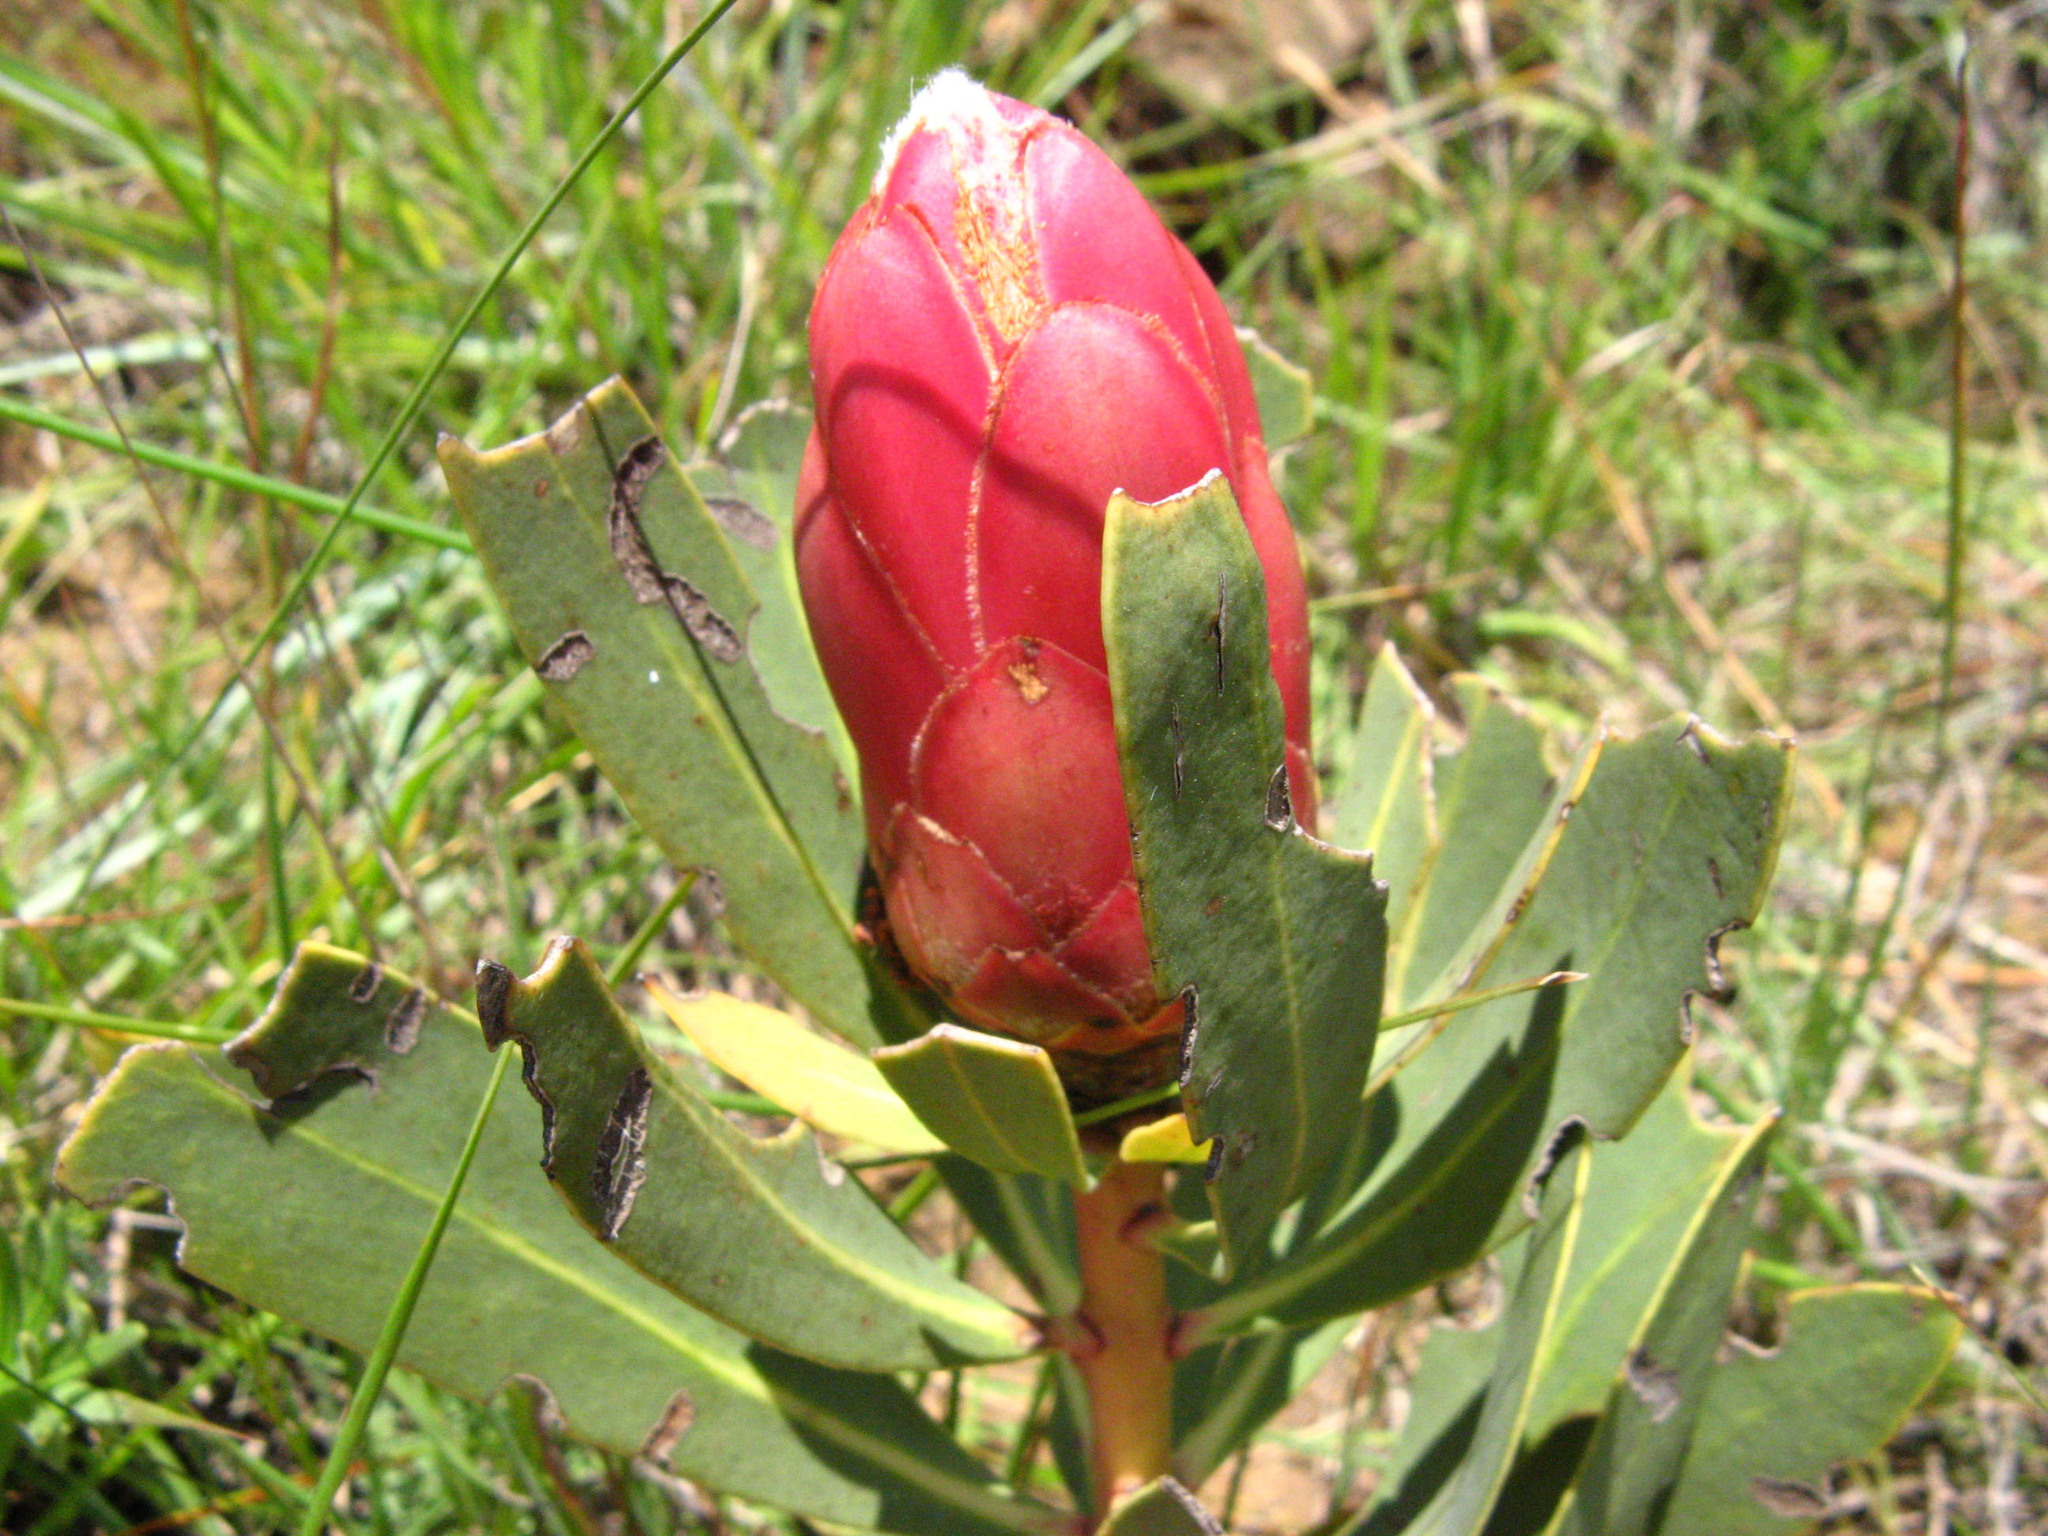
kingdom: Plantae
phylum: Tracheophyta
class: Magnoliopsida
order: Proteales
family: Proteaceae
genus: Protea
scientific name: Protea dracomontana
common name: Drakensberg dwarf sugarbush
